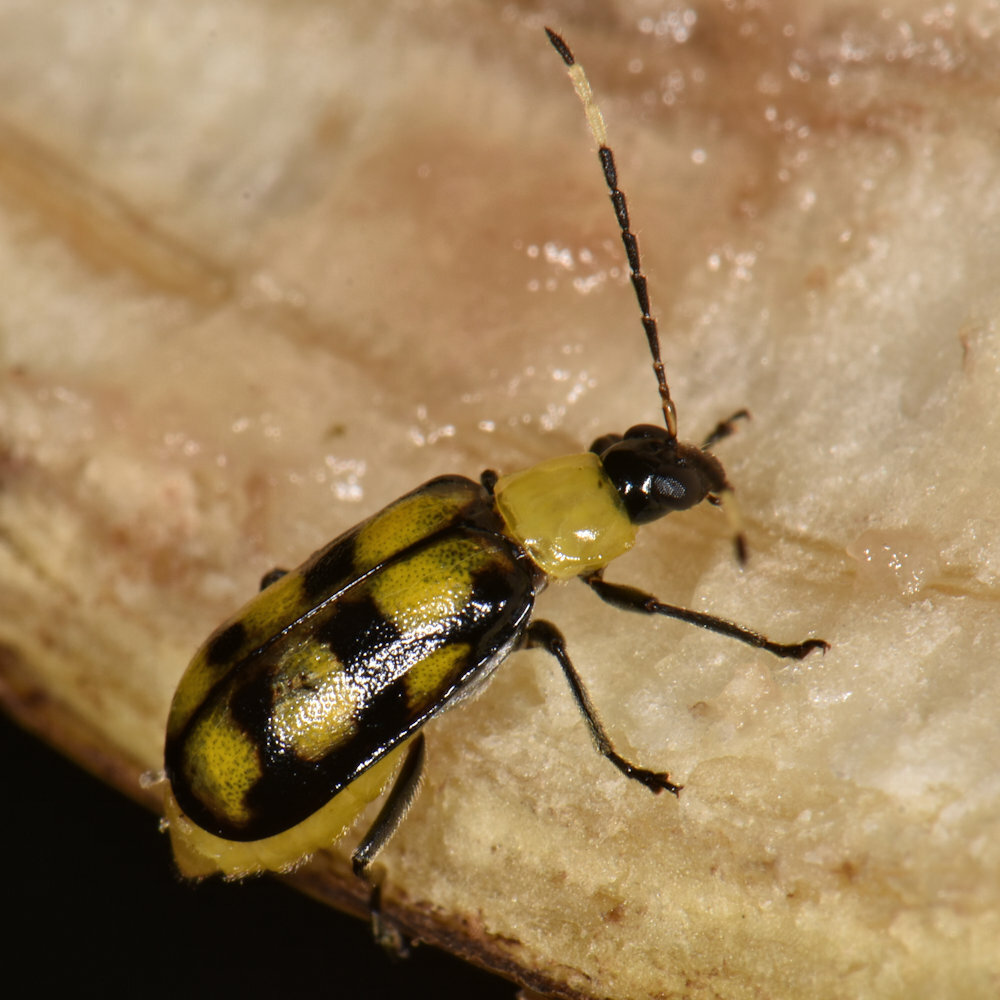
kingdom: Animalia
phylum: Arthropoda
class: Insecta
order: Coleoptera
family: Chrysomelidae
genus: Diabrotica
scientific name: Diabrotica
